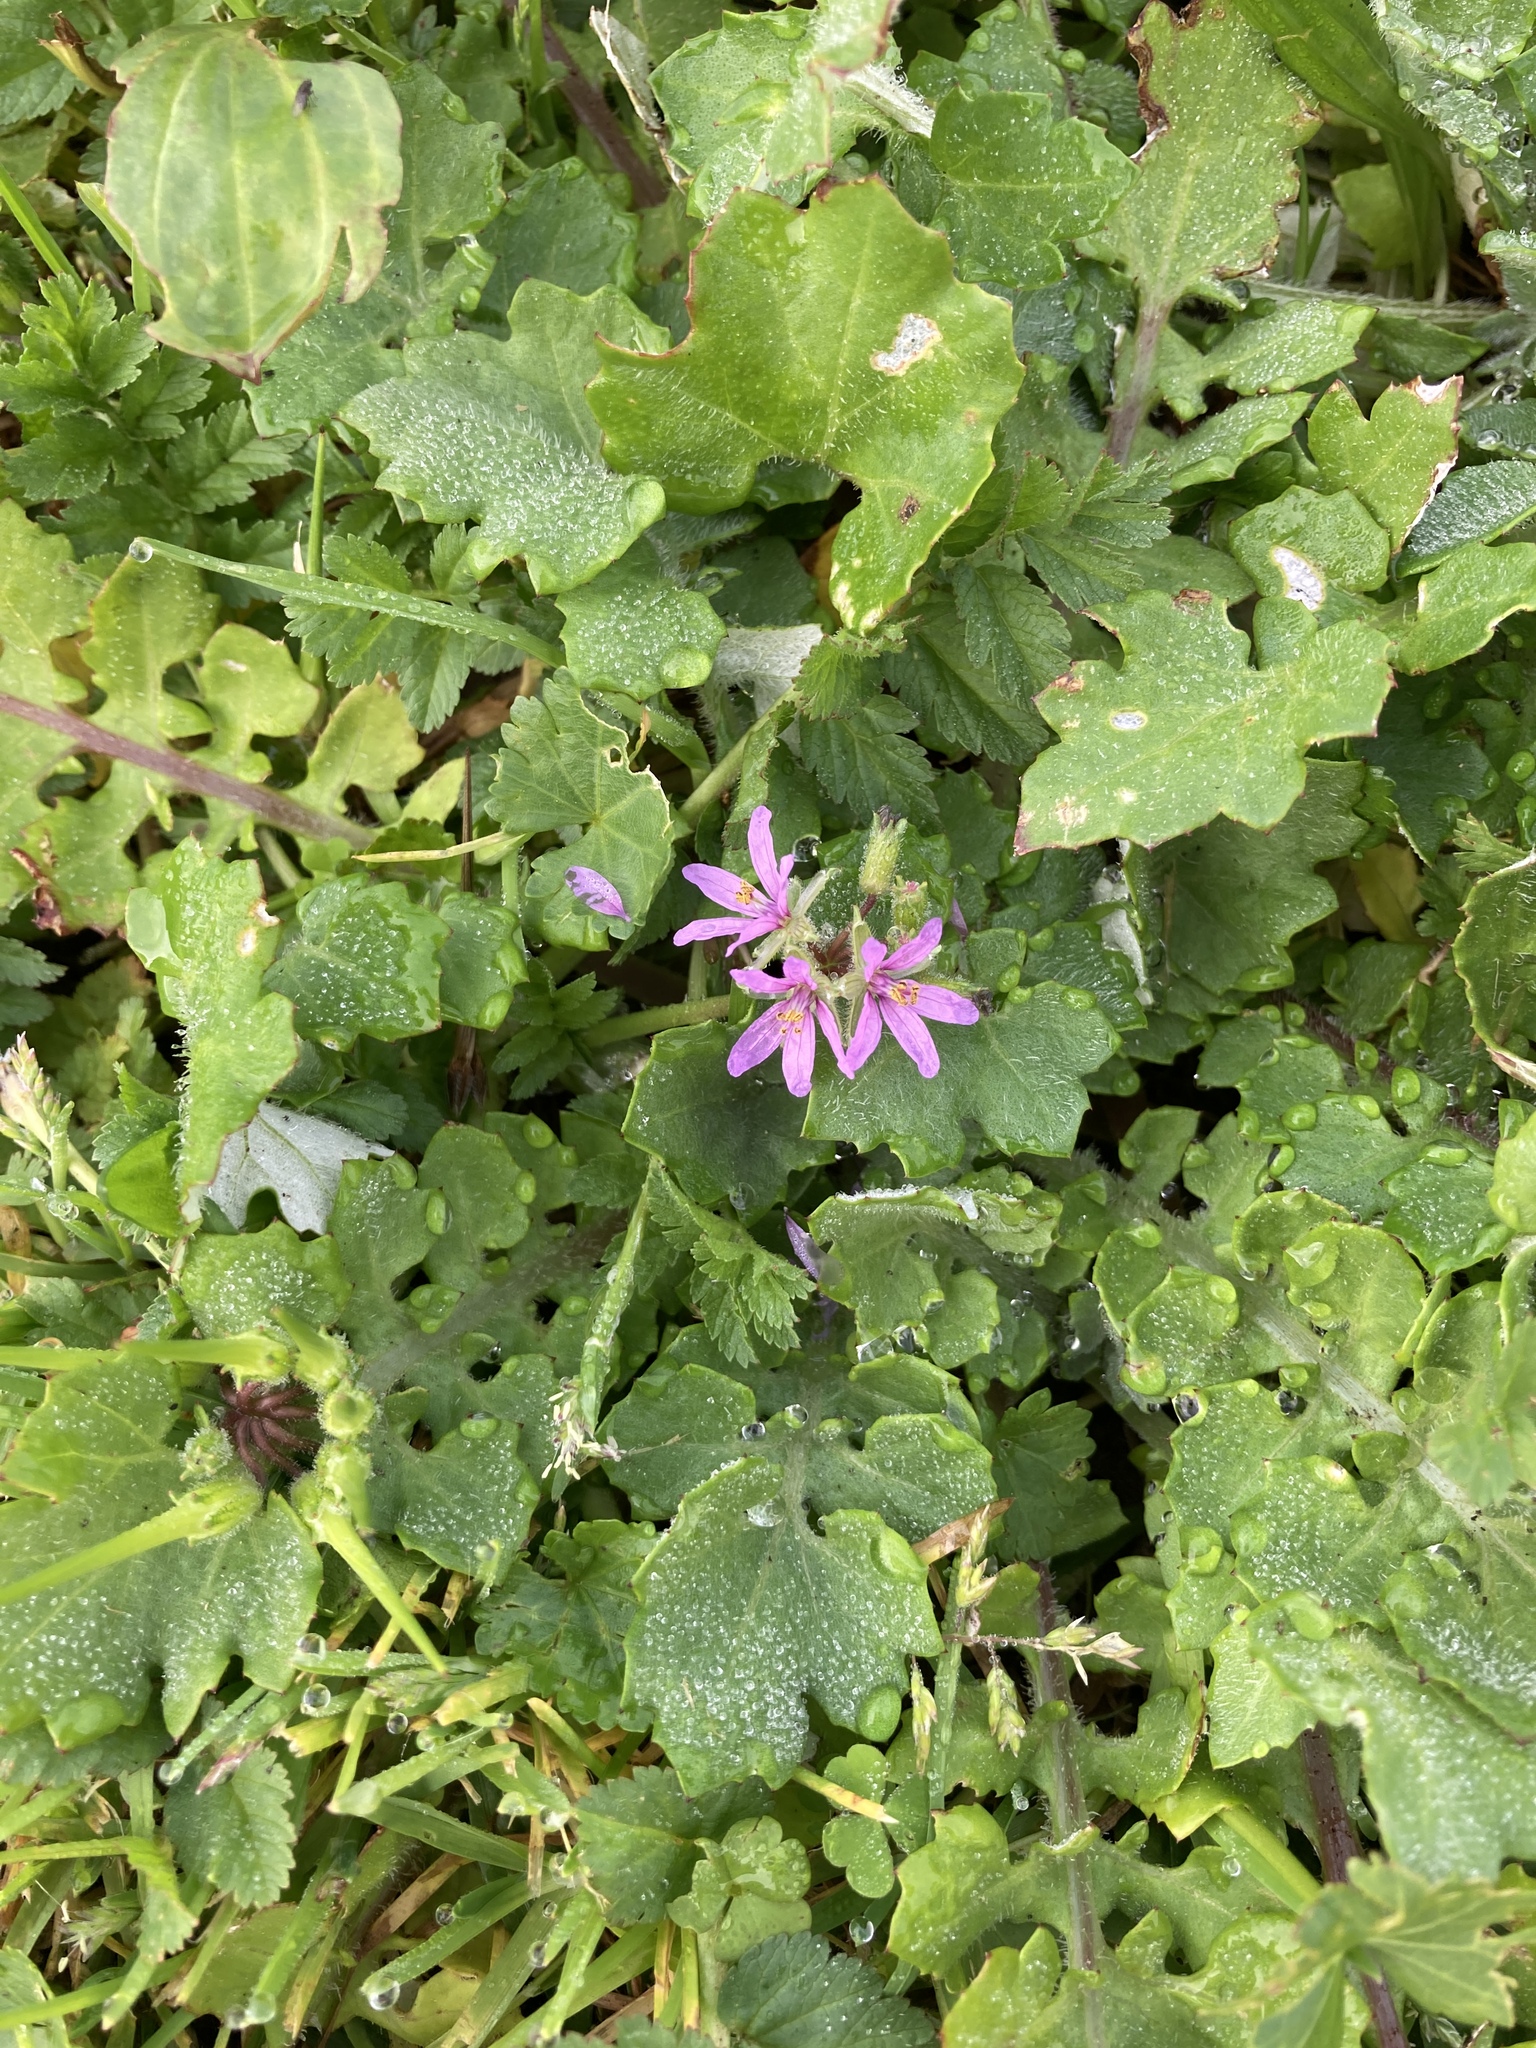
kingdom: Plantae
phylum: Tracheophyta
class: Magnoliopsida
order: Geraniales
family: Geraniaceae
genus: Erodium
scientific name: Erodium moschatum
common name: Musk stork's-bill
